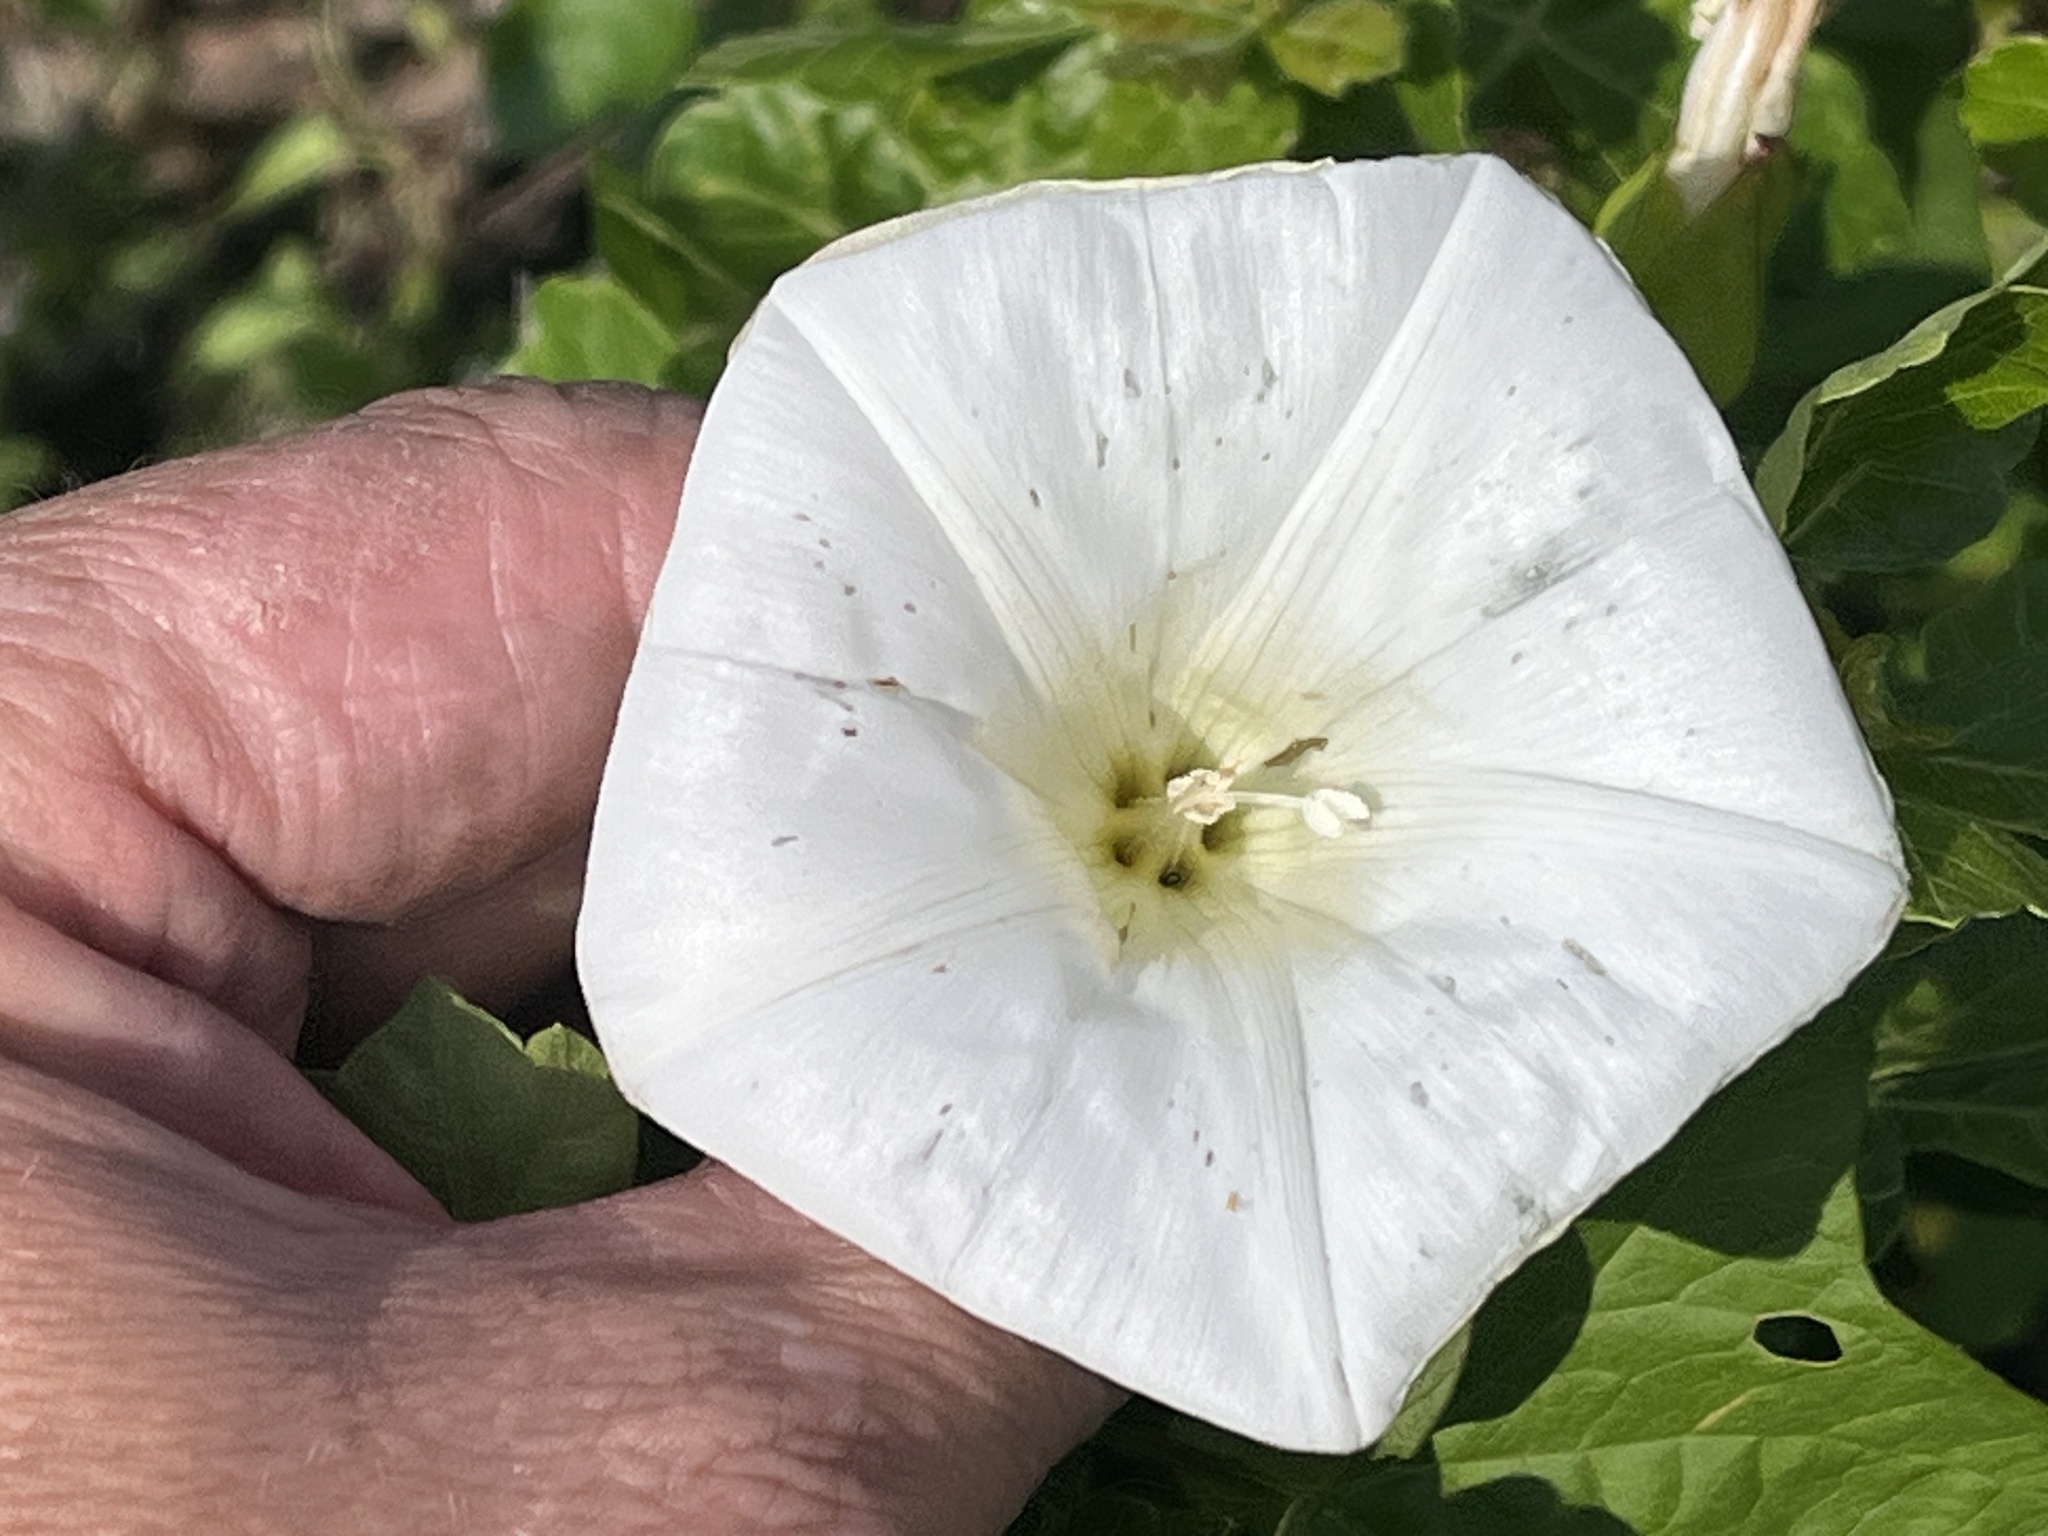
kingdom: Plantae
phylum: Tracheophyta
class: Magnoliopsida
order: Solanales
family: Convolvulaceae
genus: Calystegia
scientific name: Calystegia sepium
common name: Hedge bindweed
